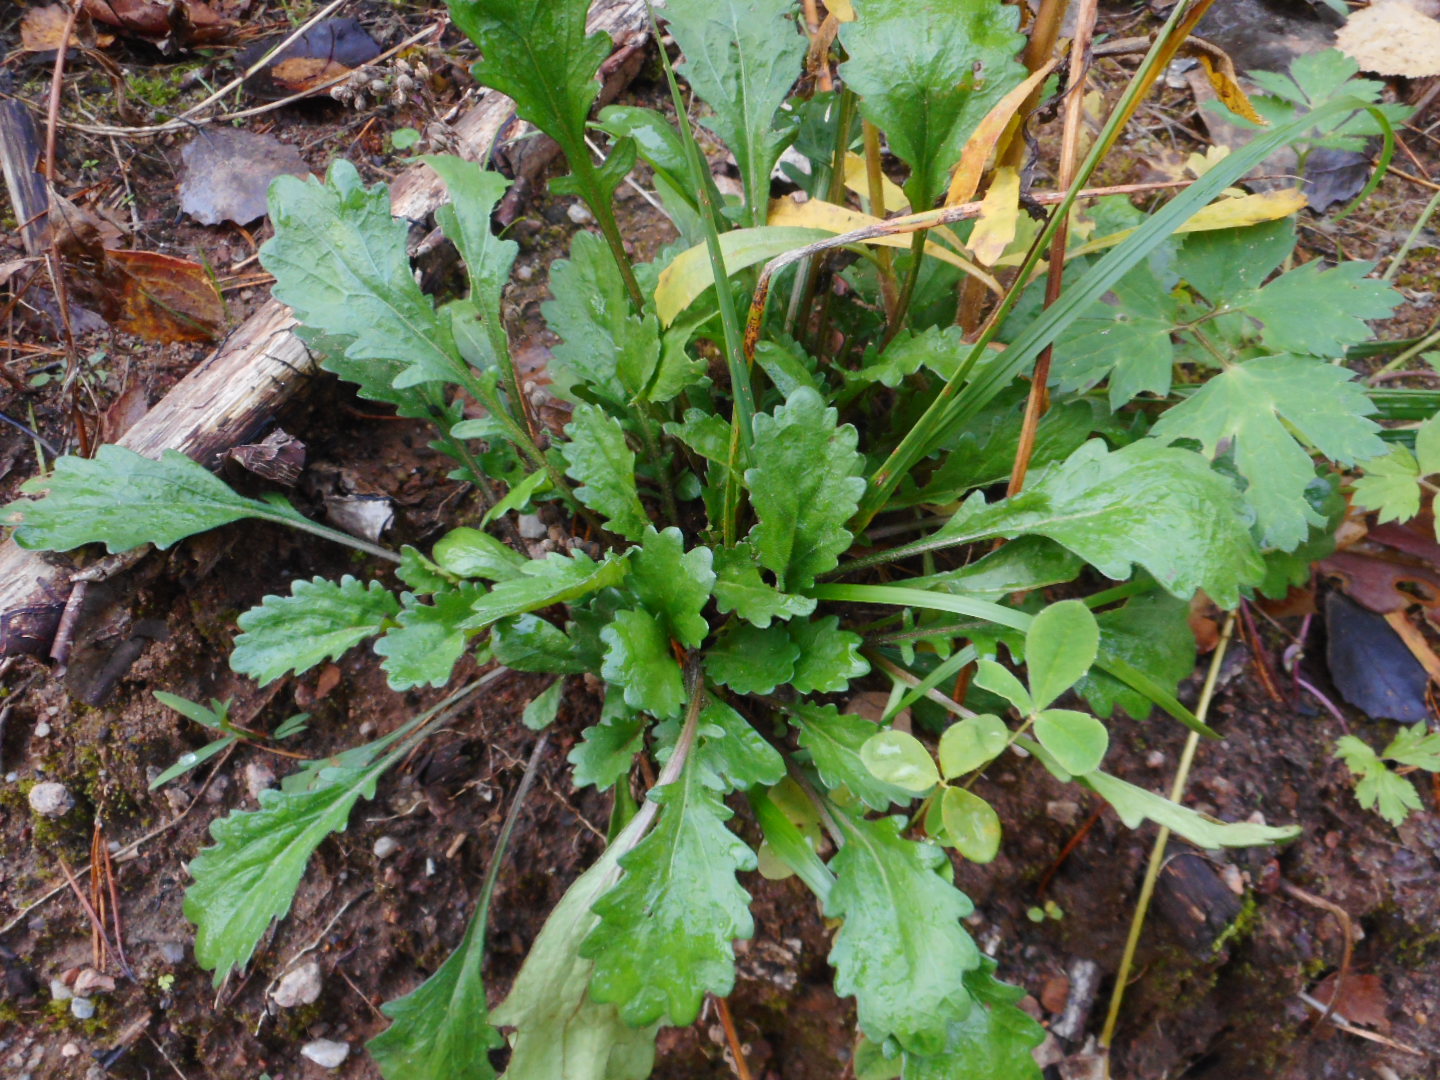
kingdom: Plantae
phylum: Tracheophyta
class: Magnoliopsida
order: Asterales
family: Asteraceae
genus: Leucanthemum
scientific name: Leucanthemum vulgare
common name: Oxeye daisy
